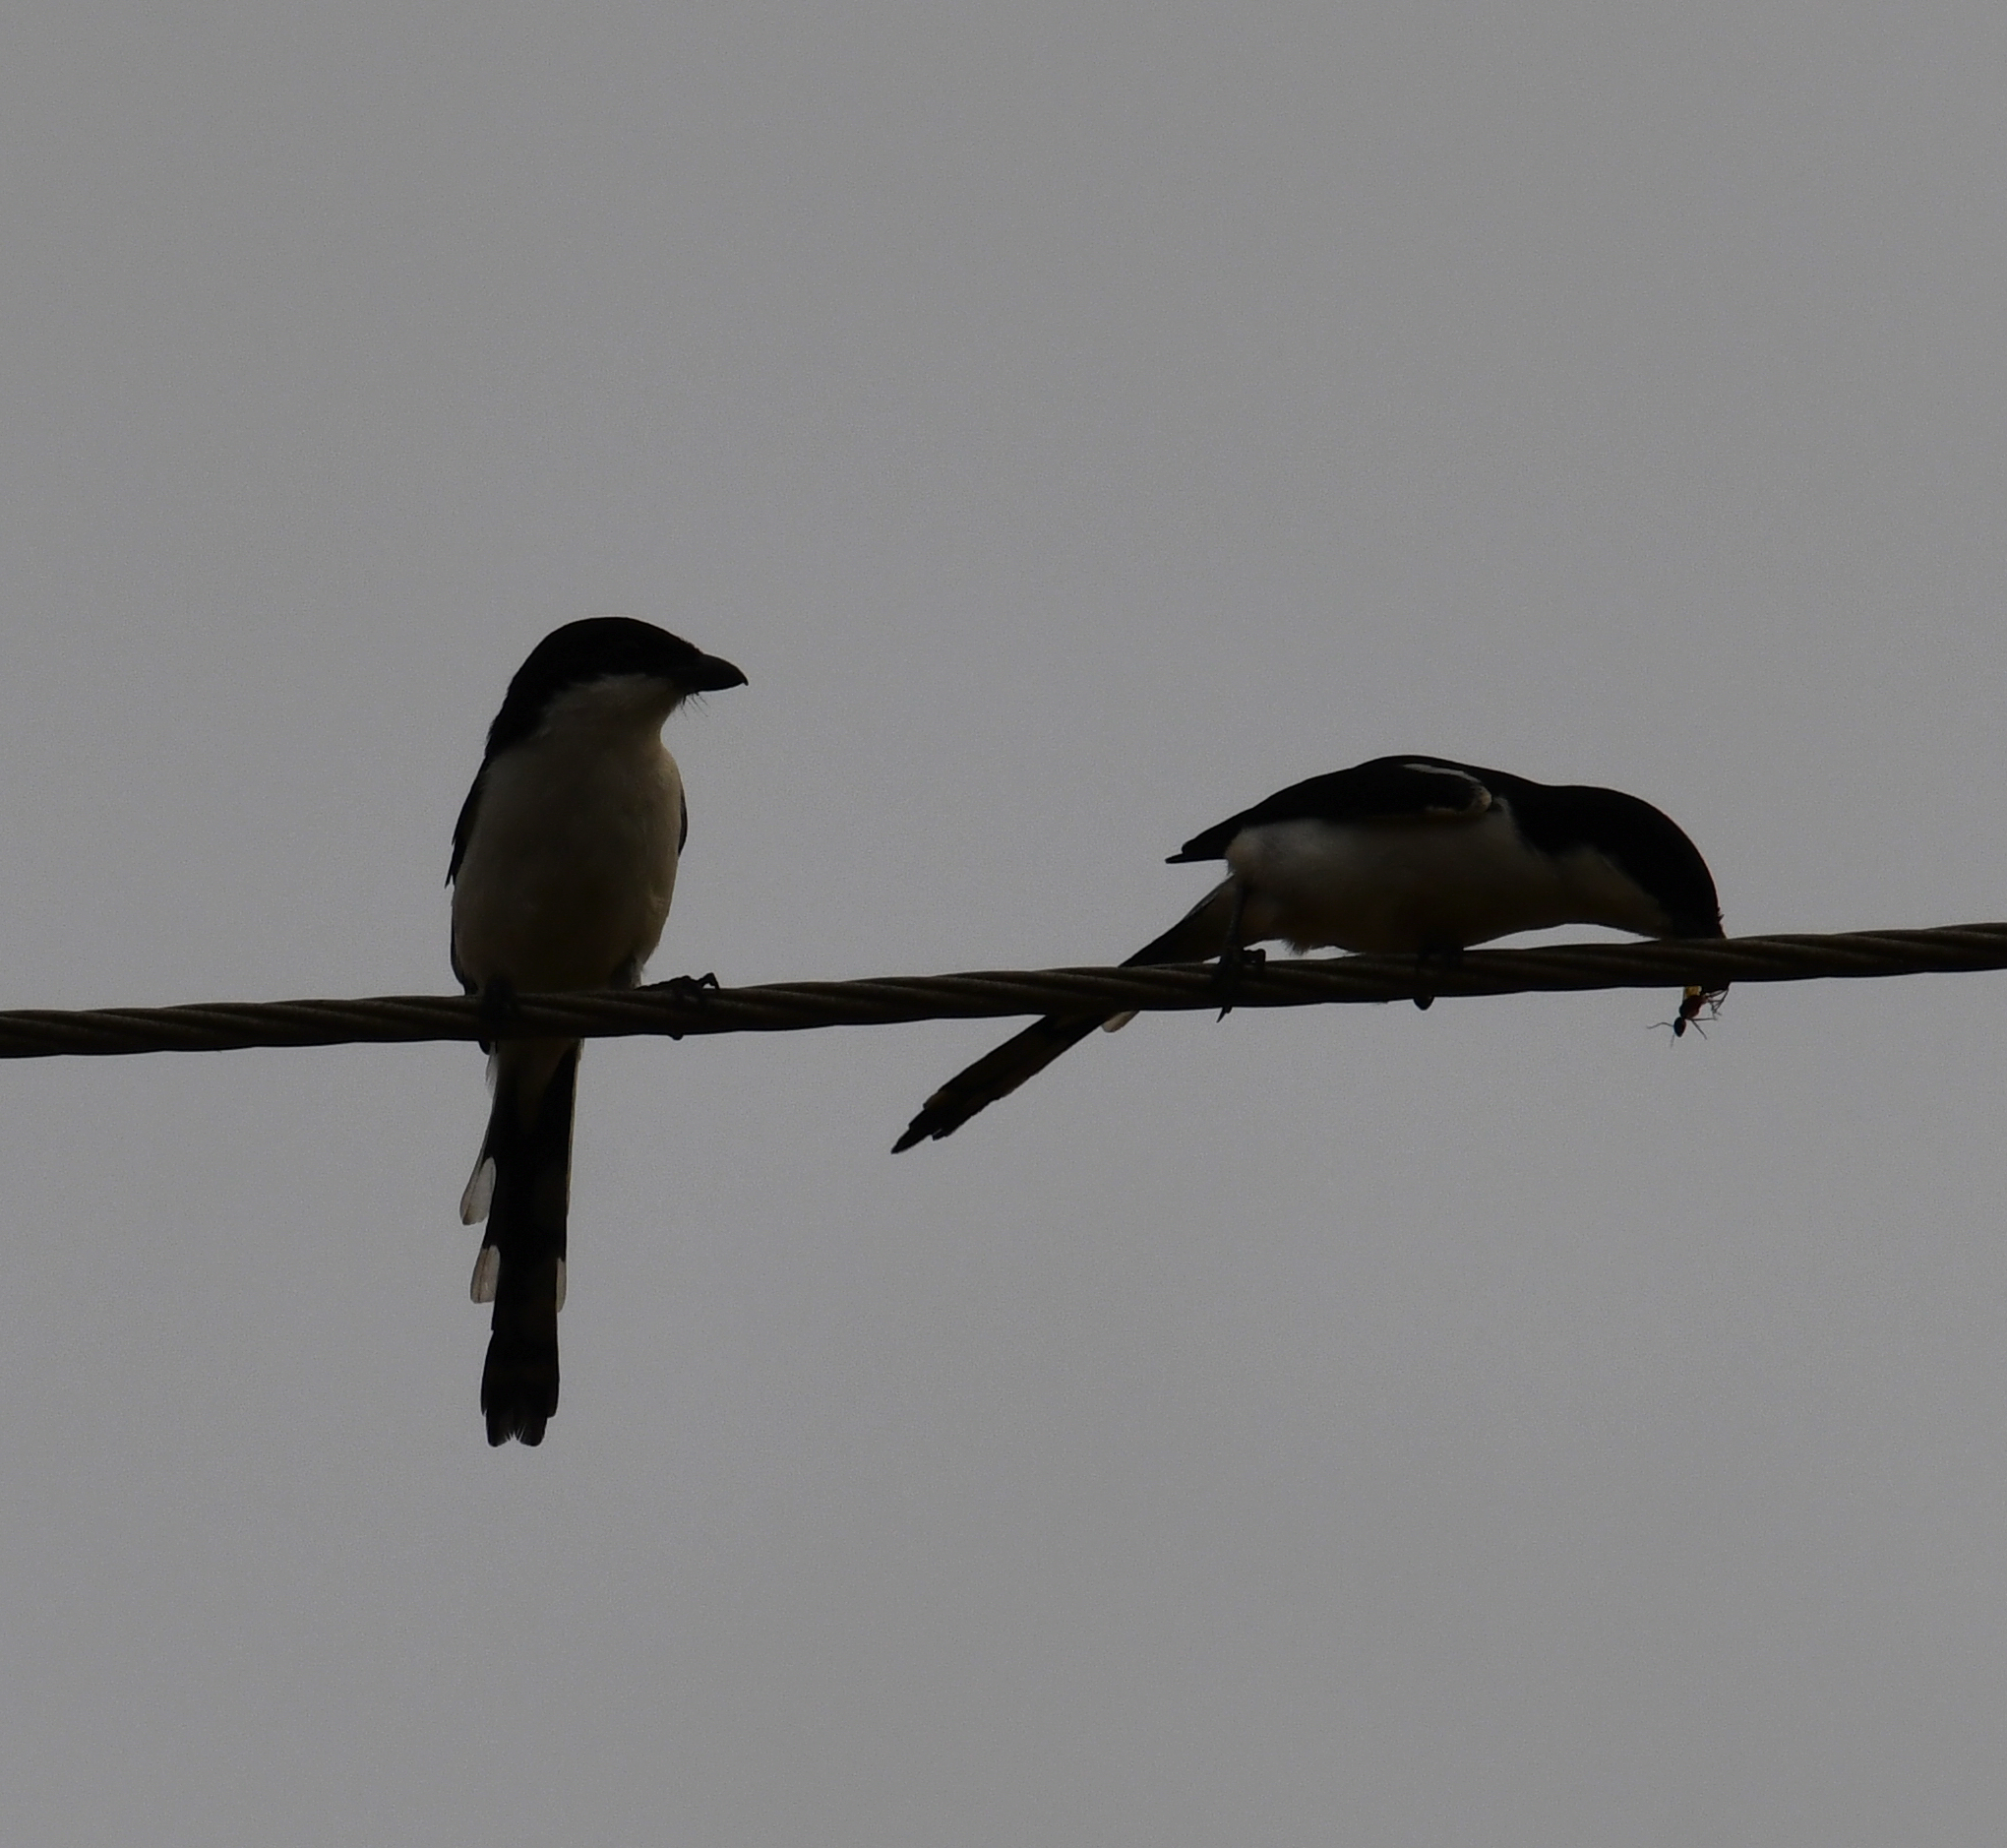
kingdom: Animalia
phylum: Chordata
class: Aves
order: Passeriformes
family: Laniidae
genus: Lanius
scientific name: Lanius humeralis
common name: Northern fiscal
